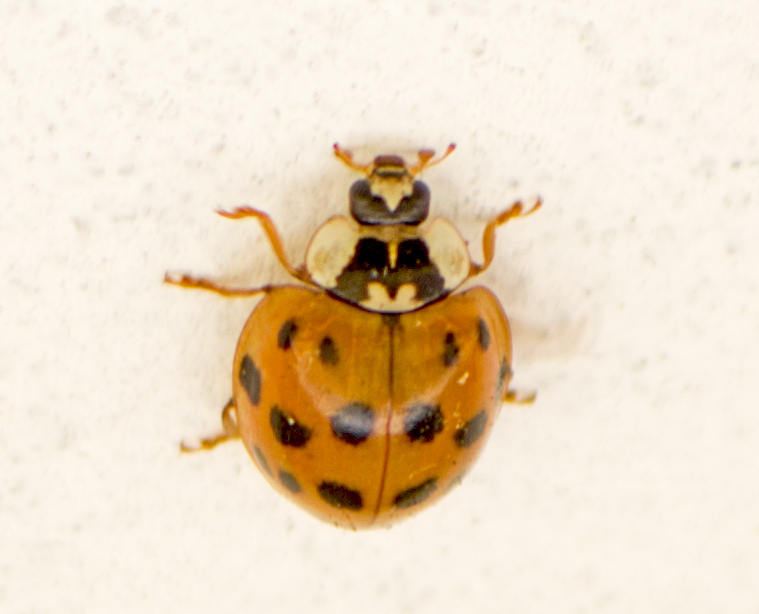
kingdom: Animalia
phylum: Arthropoda
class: Insecta
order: Coleoptera
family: Coccinellidae
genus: Harmonia
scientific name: Harmonia axyridis
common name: Harlequin ladybird
